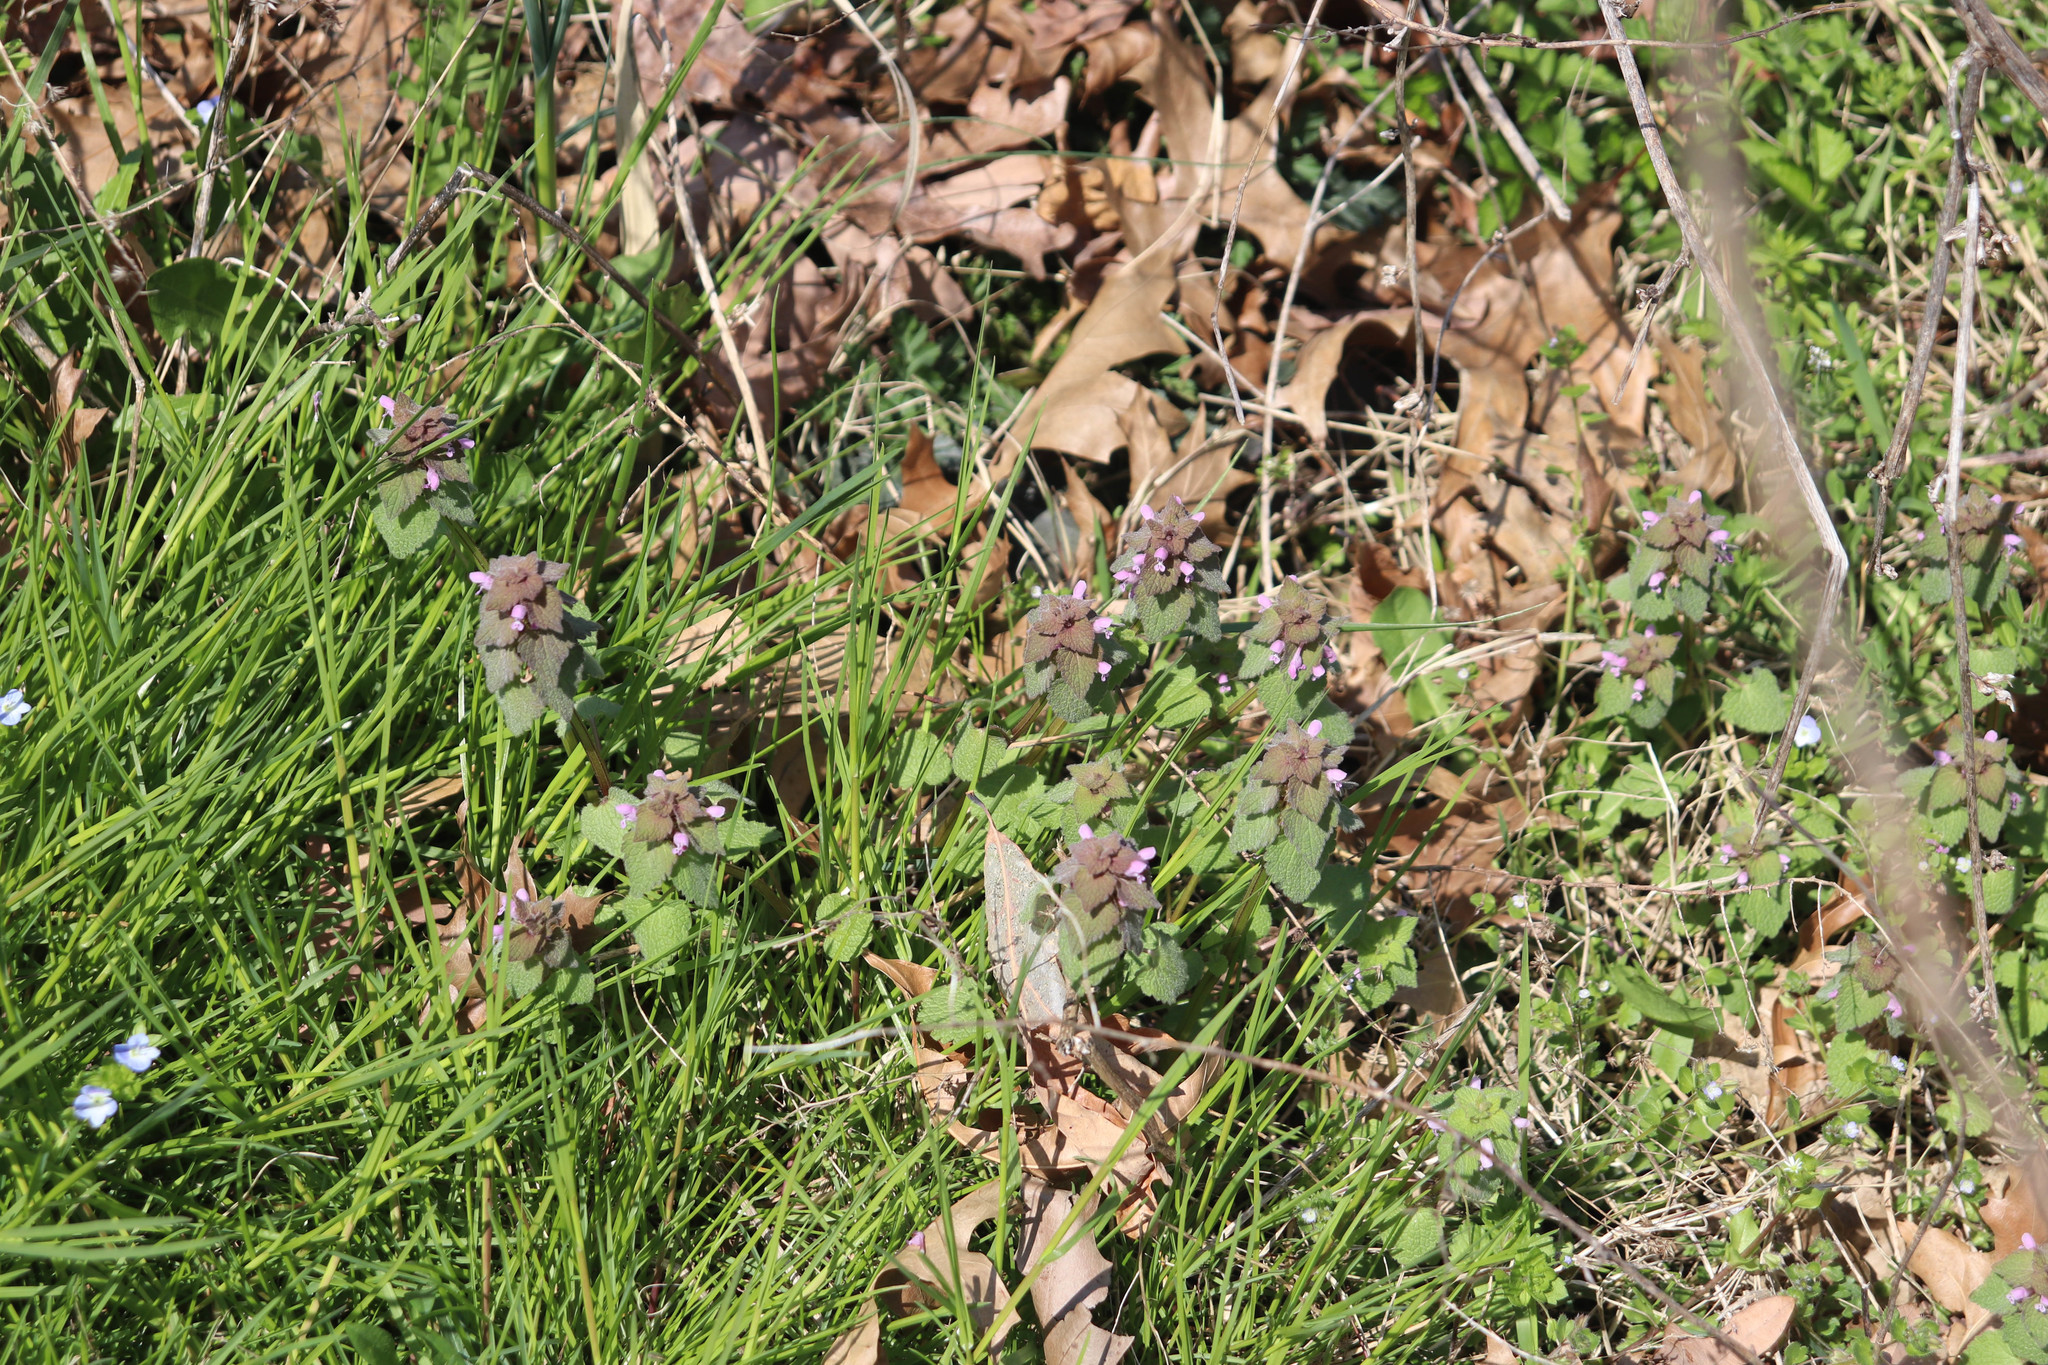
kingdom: Plantae
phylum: Tracheophyta
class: Magnoliopsida
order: Lamiales
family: Lamiaceae
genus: Lamium
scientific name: Lamium purpureum
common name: Red dead-nettle
